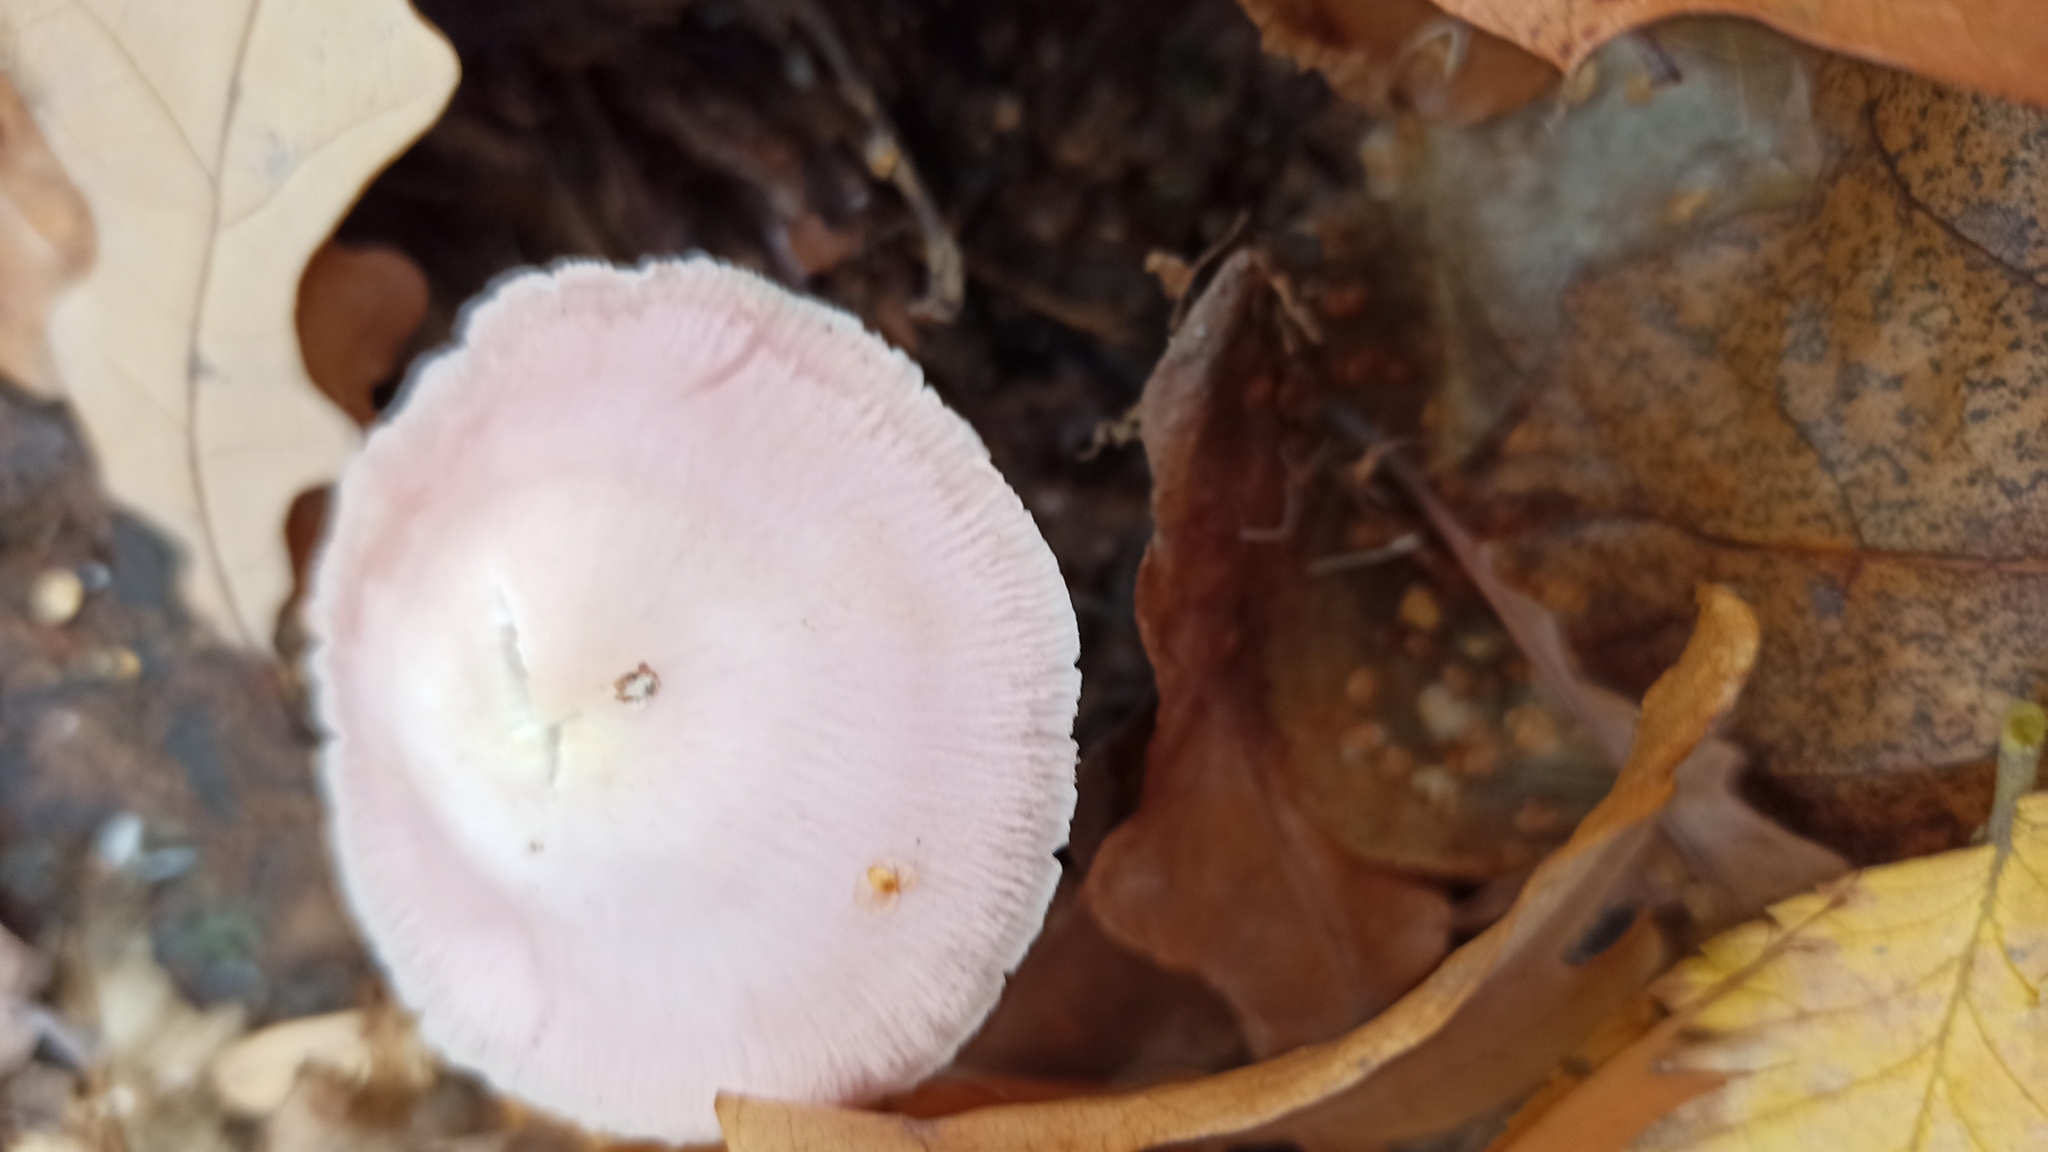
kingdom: Fungi
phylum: Basidiomycota
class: Agaricomycetes
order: Agaricales
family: Mycenaceae
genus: Mycena
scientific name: Mycena rosea
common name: Rosy bonnet
